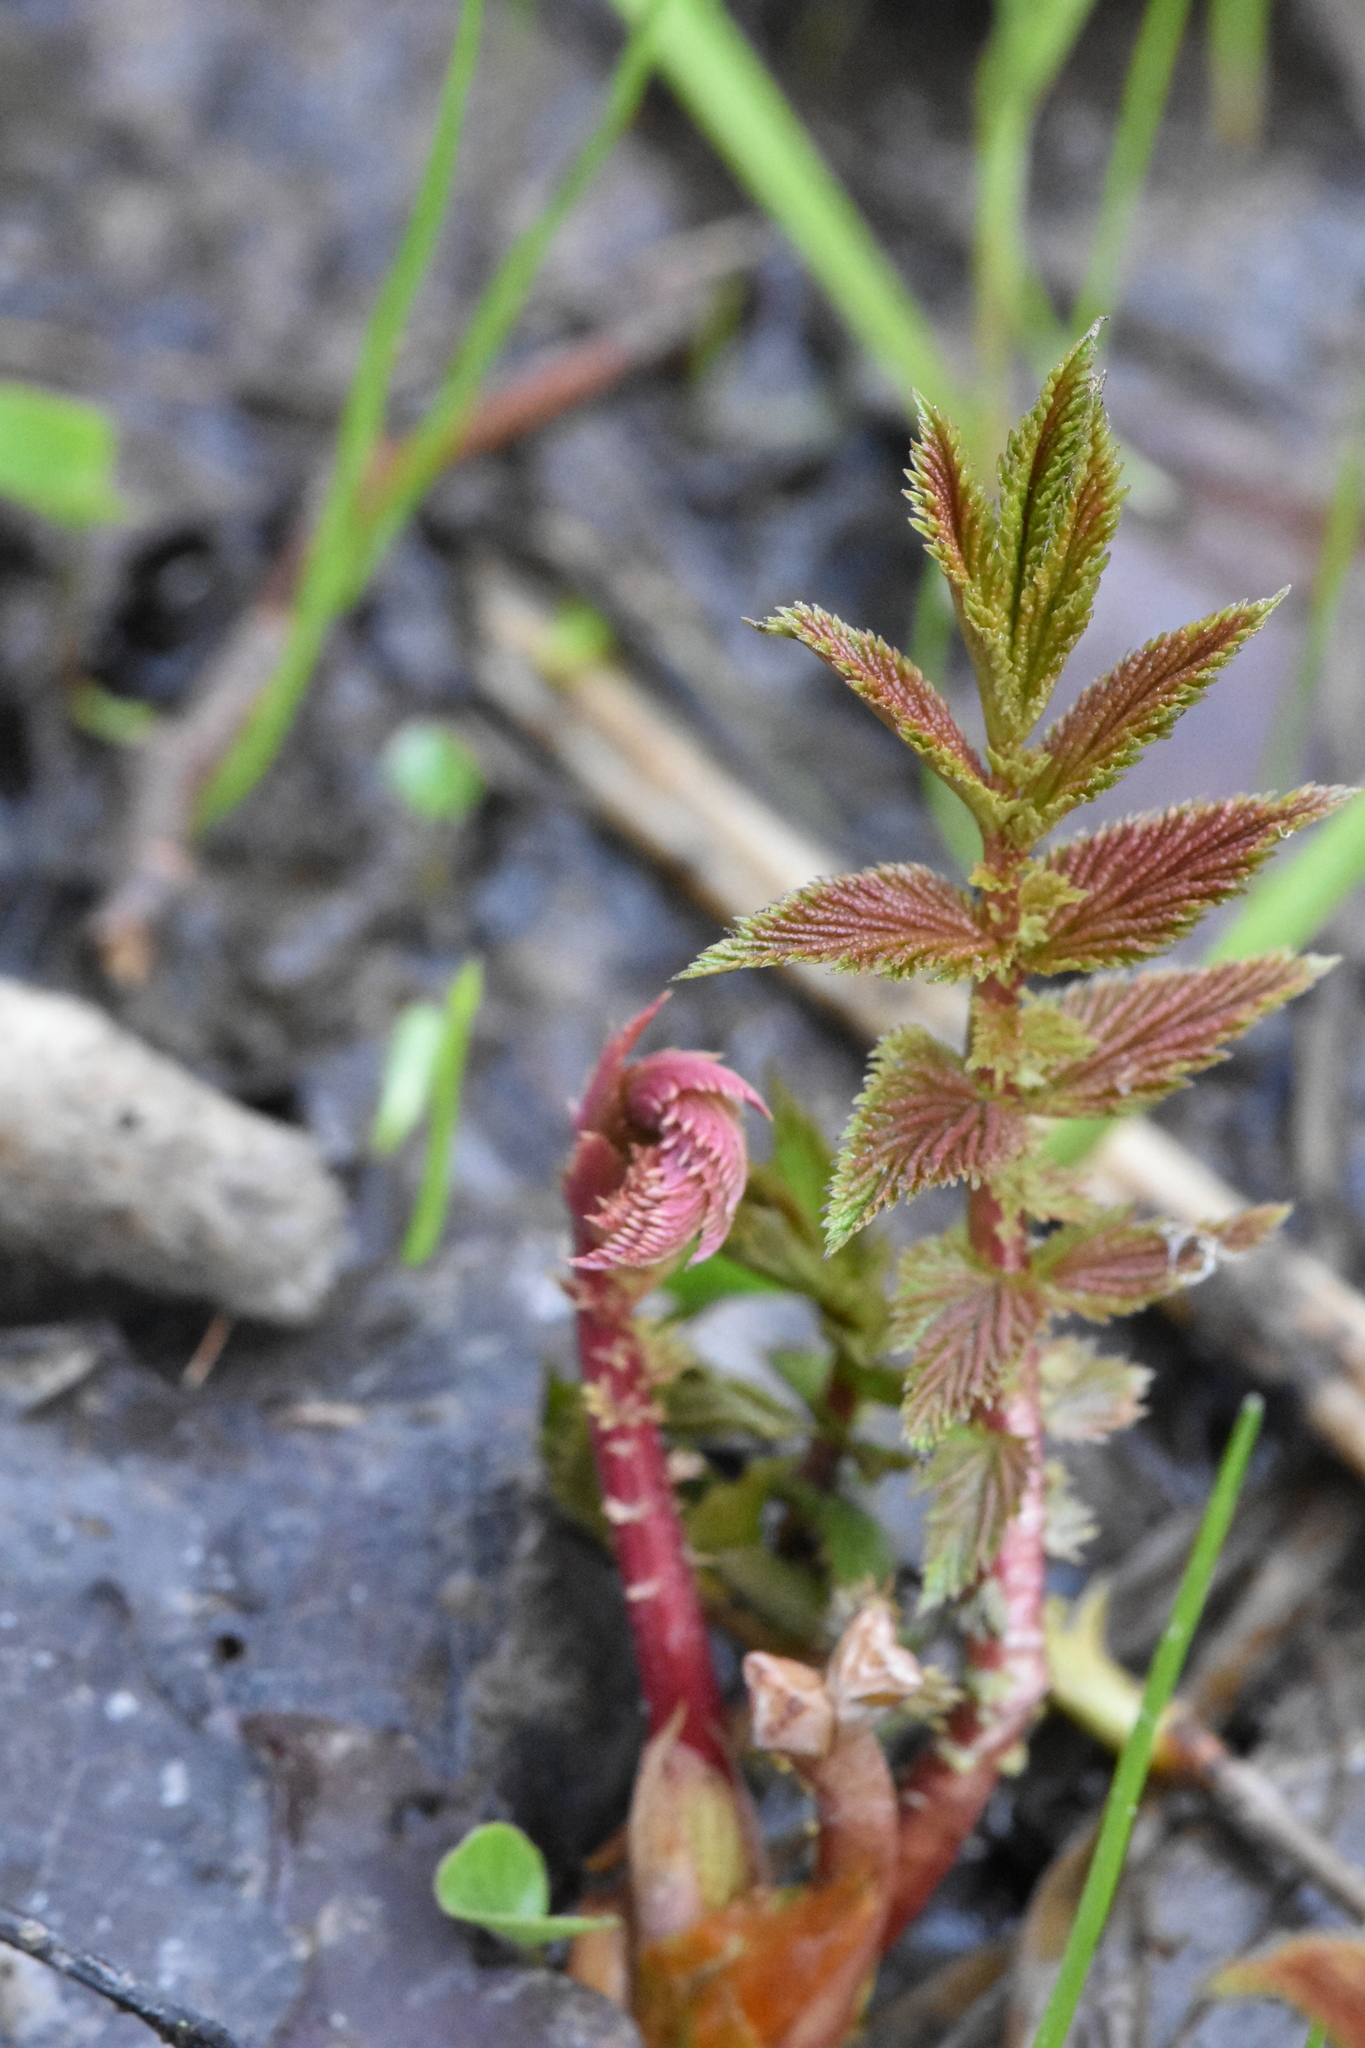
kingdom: Plantae
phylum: Tracheophyta
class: Magnoliopsida
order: Rosales
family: Rosaceae
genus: Filipendula
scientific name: Filipendula ulmaria
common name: Meadowsweet
